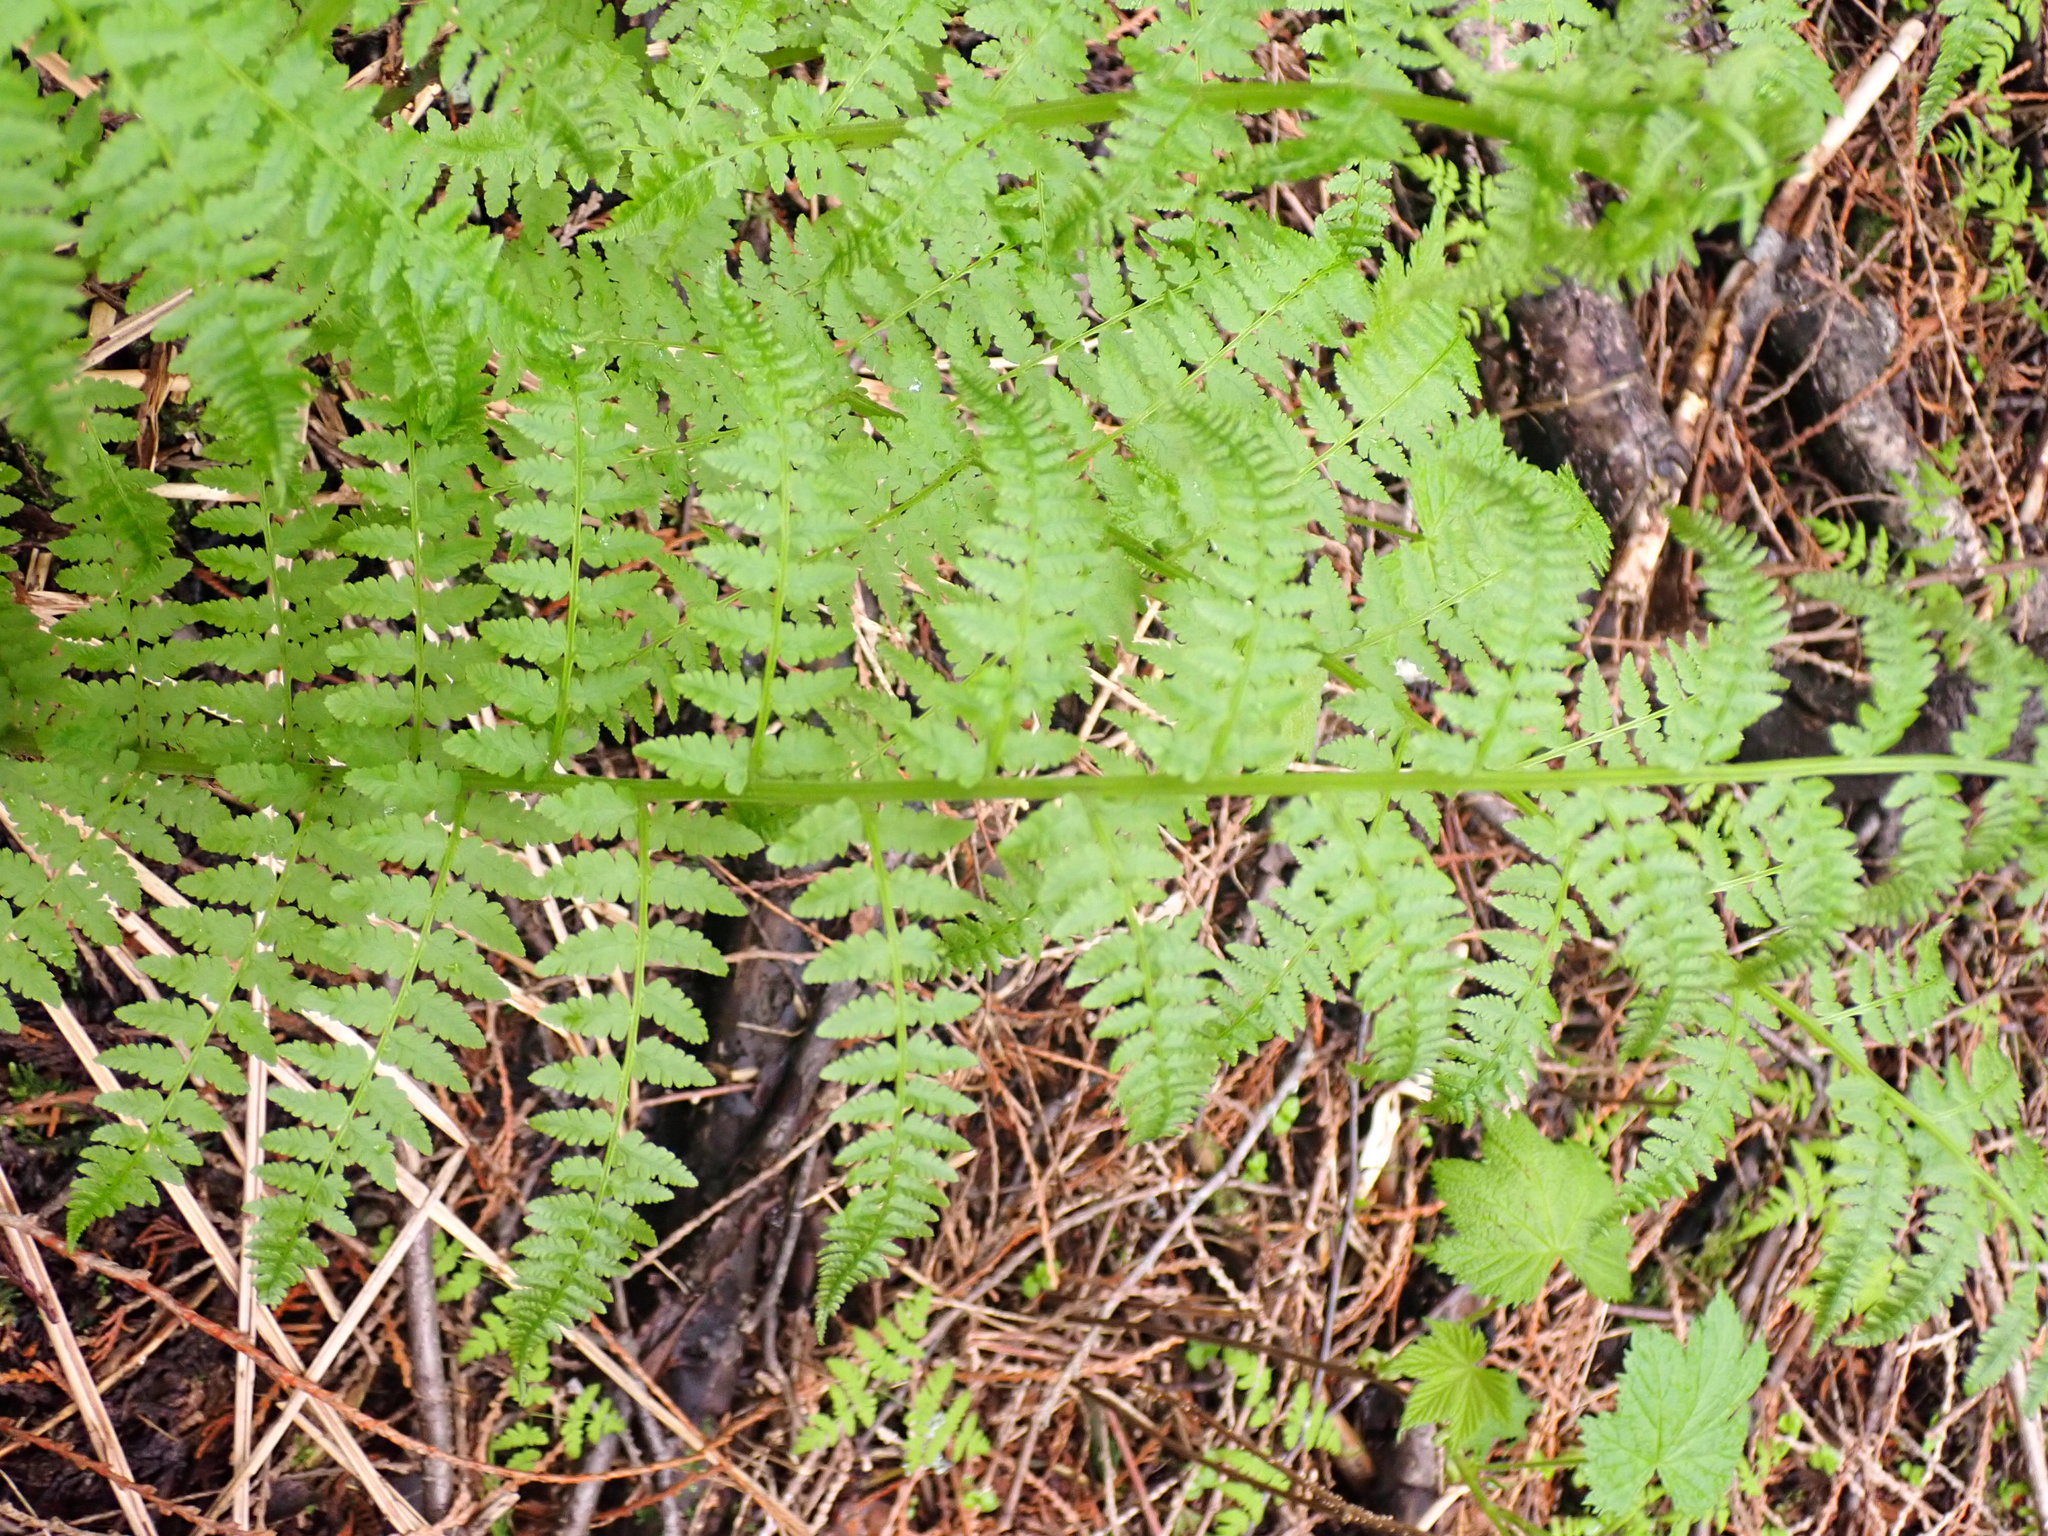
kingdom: Plantae
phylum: Tracheophyta
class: Polypodiopsida
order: Polypodiales
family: Athyriaceae
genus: Athyrium
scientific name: Athyrium filix-femina
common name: Lady fern
